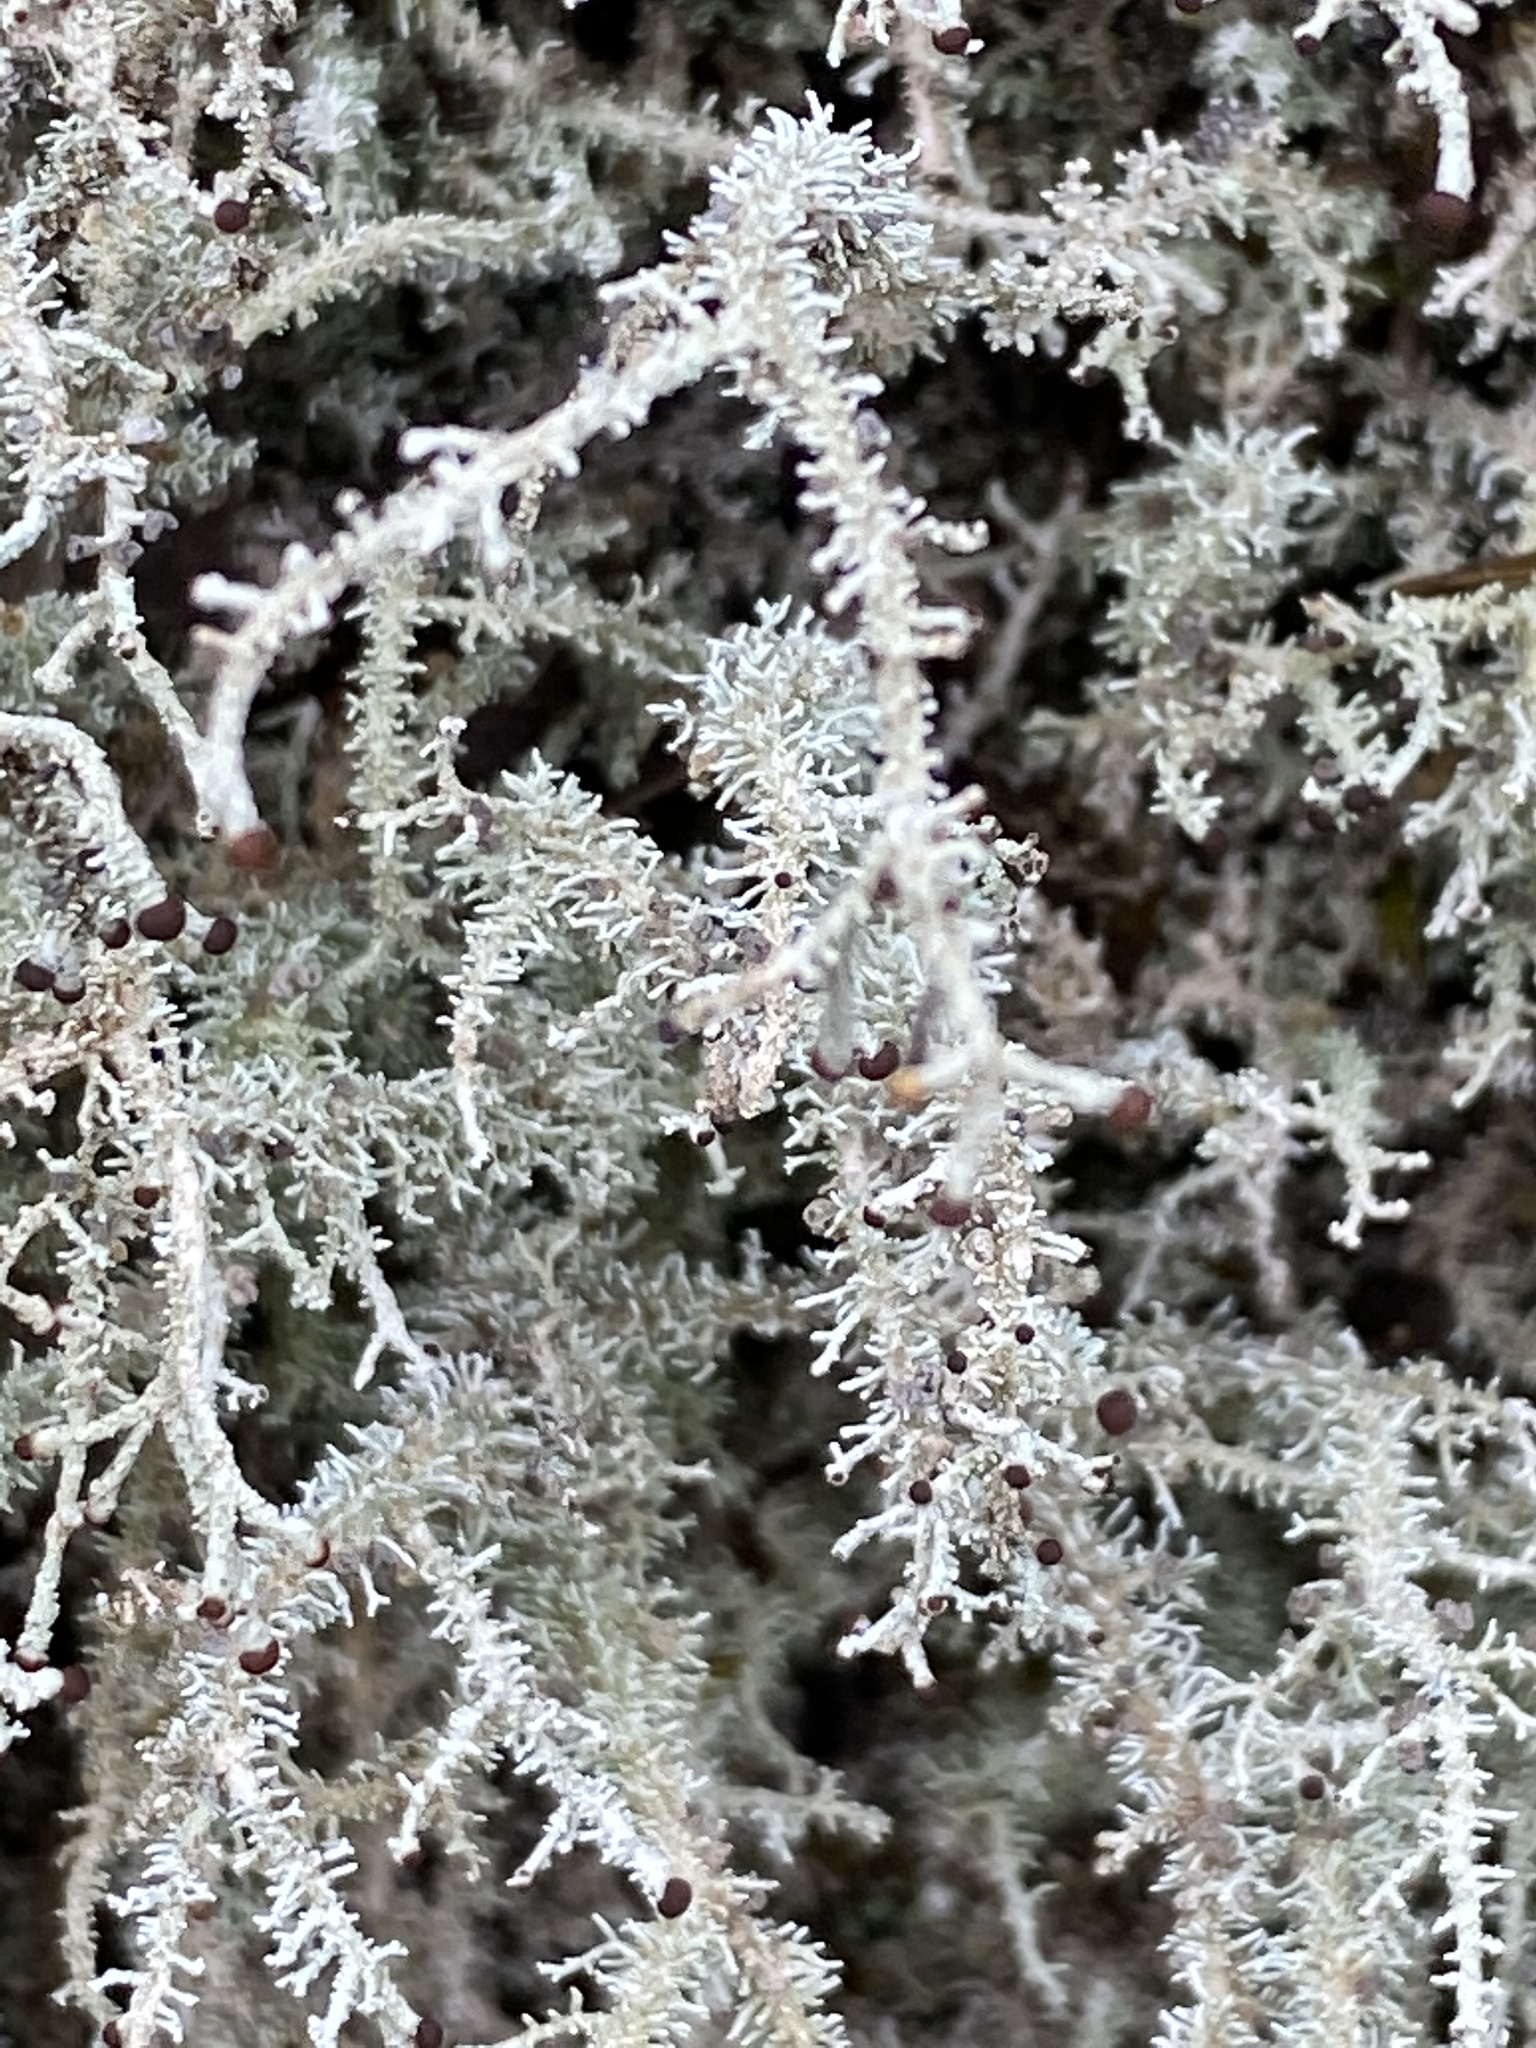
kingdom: Fungi
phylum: Ascomycota
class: Lecanoromycetes
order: Lecanorales
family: Stereocaulaceae
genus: Stereocaulon
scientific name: Stereocaulon microcarpum
